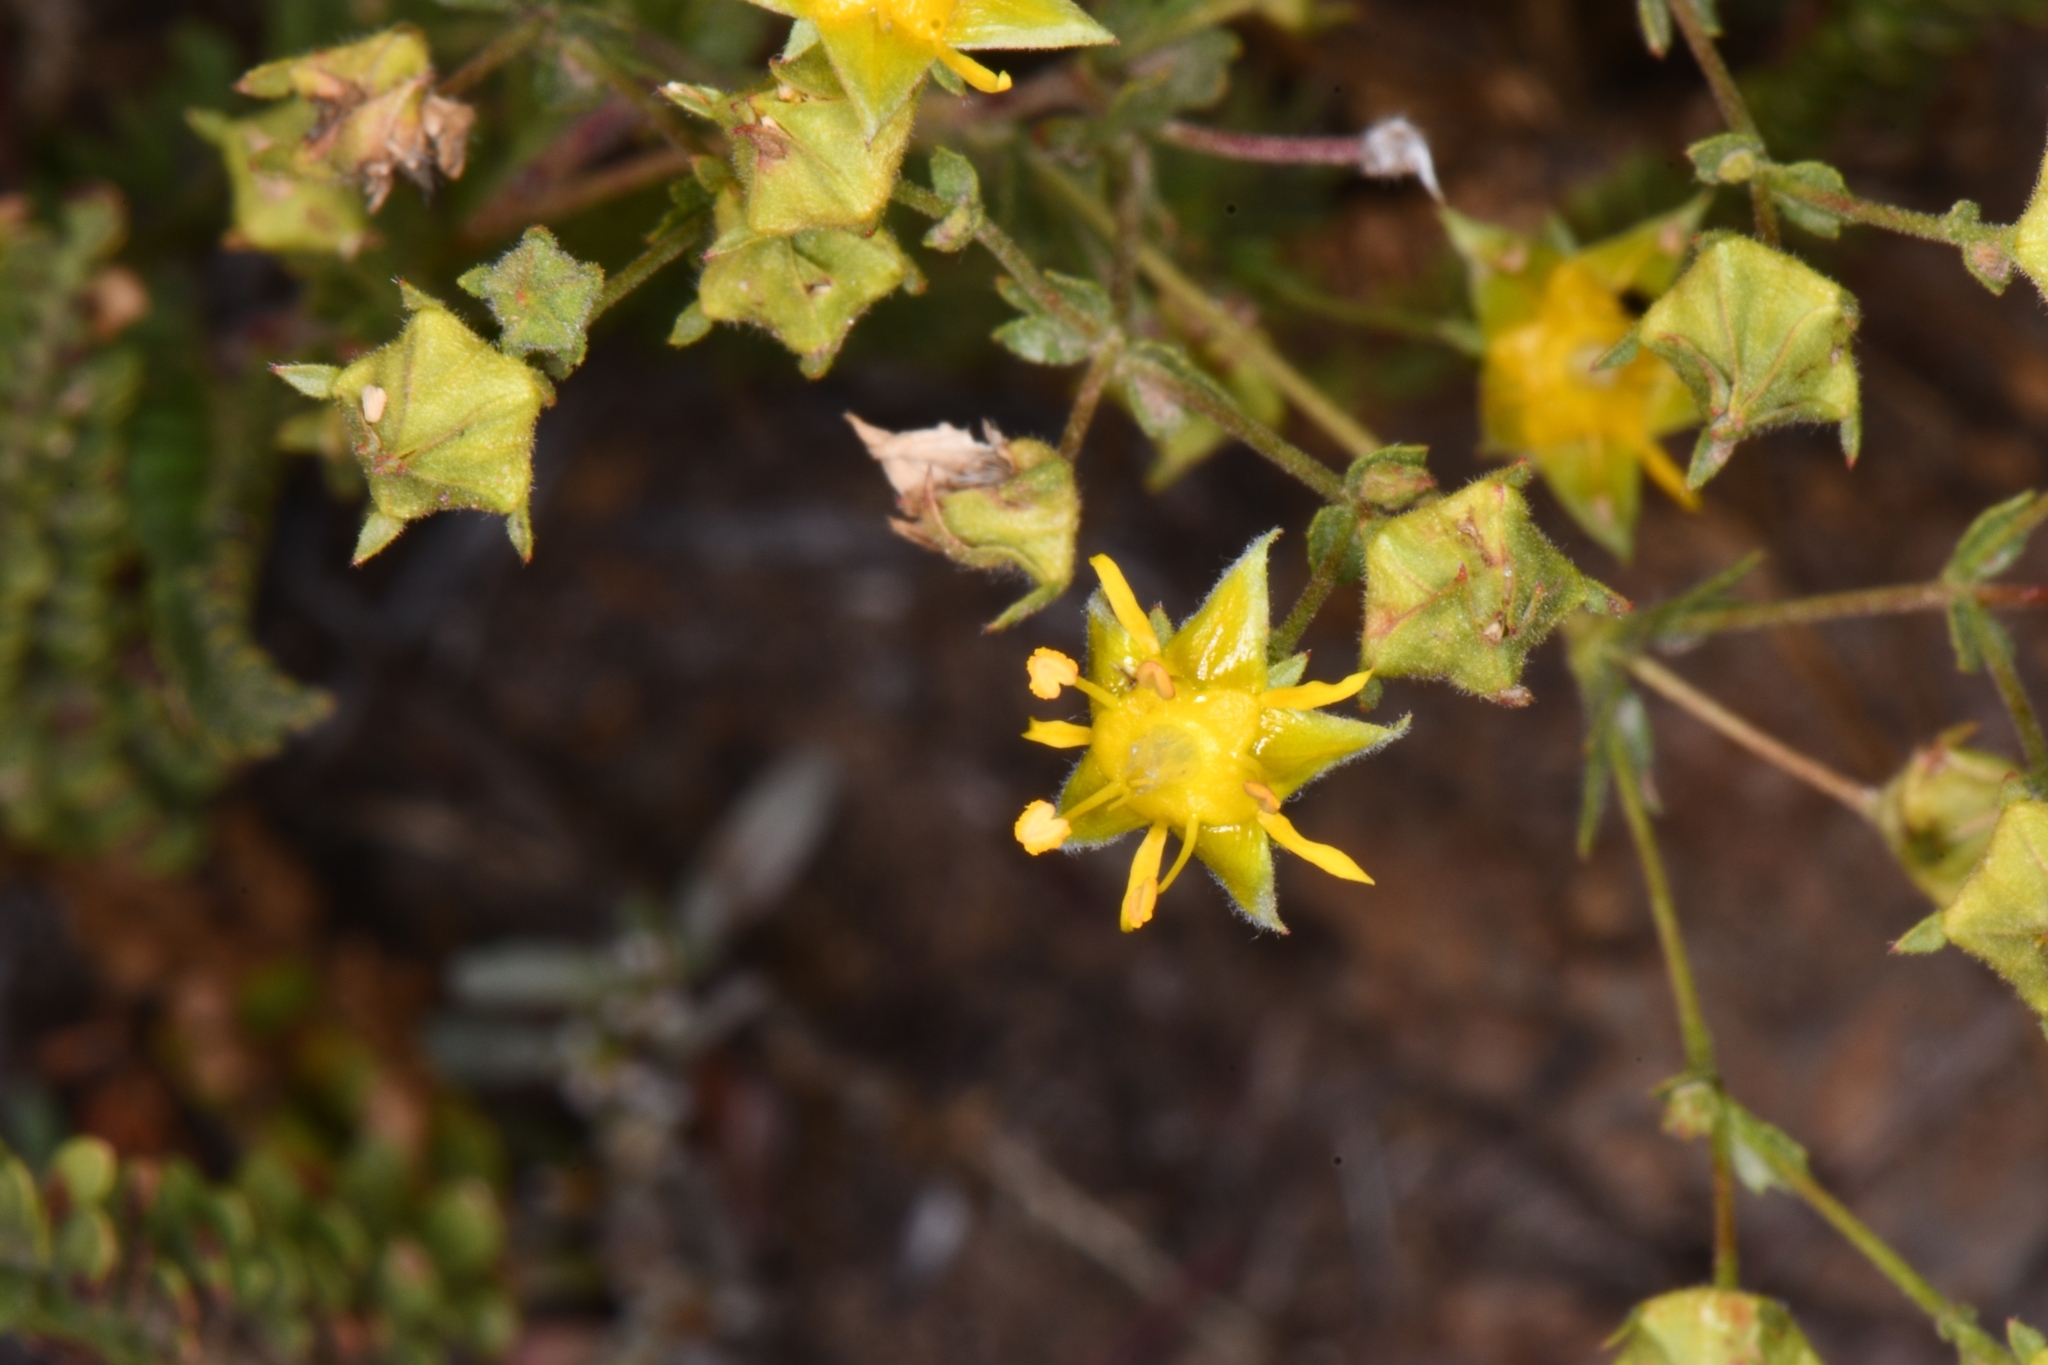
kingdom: Plantae
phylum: Tracheophyta
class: Magnoliopsida
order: Rosales
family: Rosaceae
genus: Potentilla
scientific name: Potentilla sabulosa
